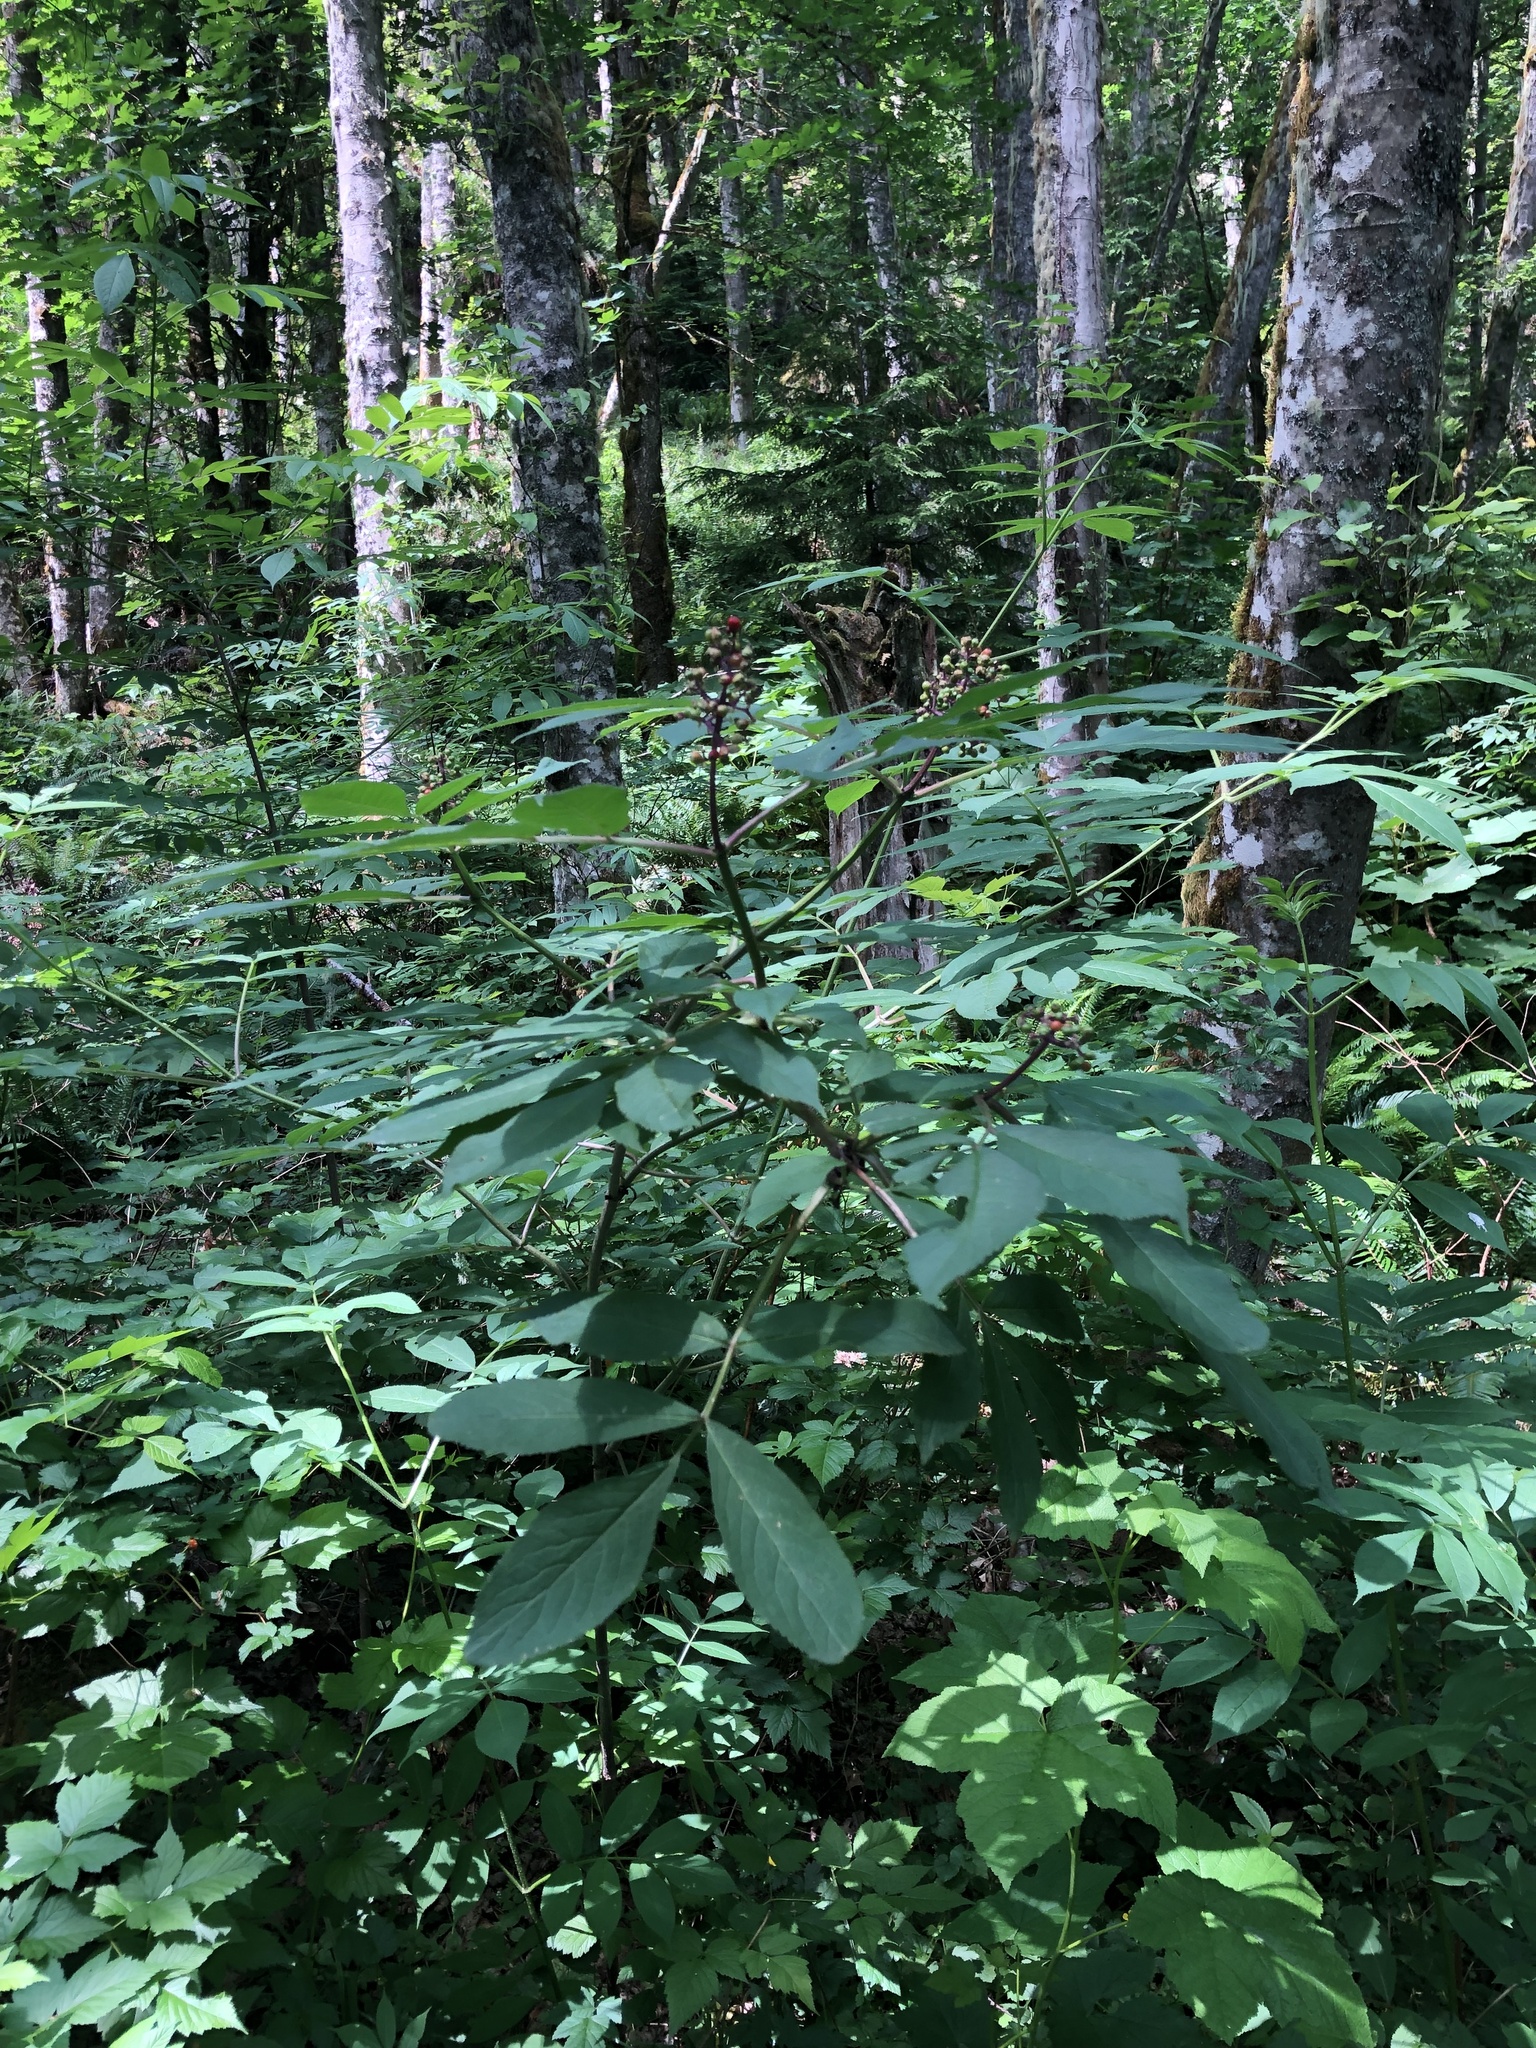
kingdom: Plantae
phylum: Tracheophyta
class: Magnoliopsida
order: Dipsacales
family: Viburnaceae
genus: Sambucus
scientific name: Sambucus racemosa
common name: Red-berried elder
